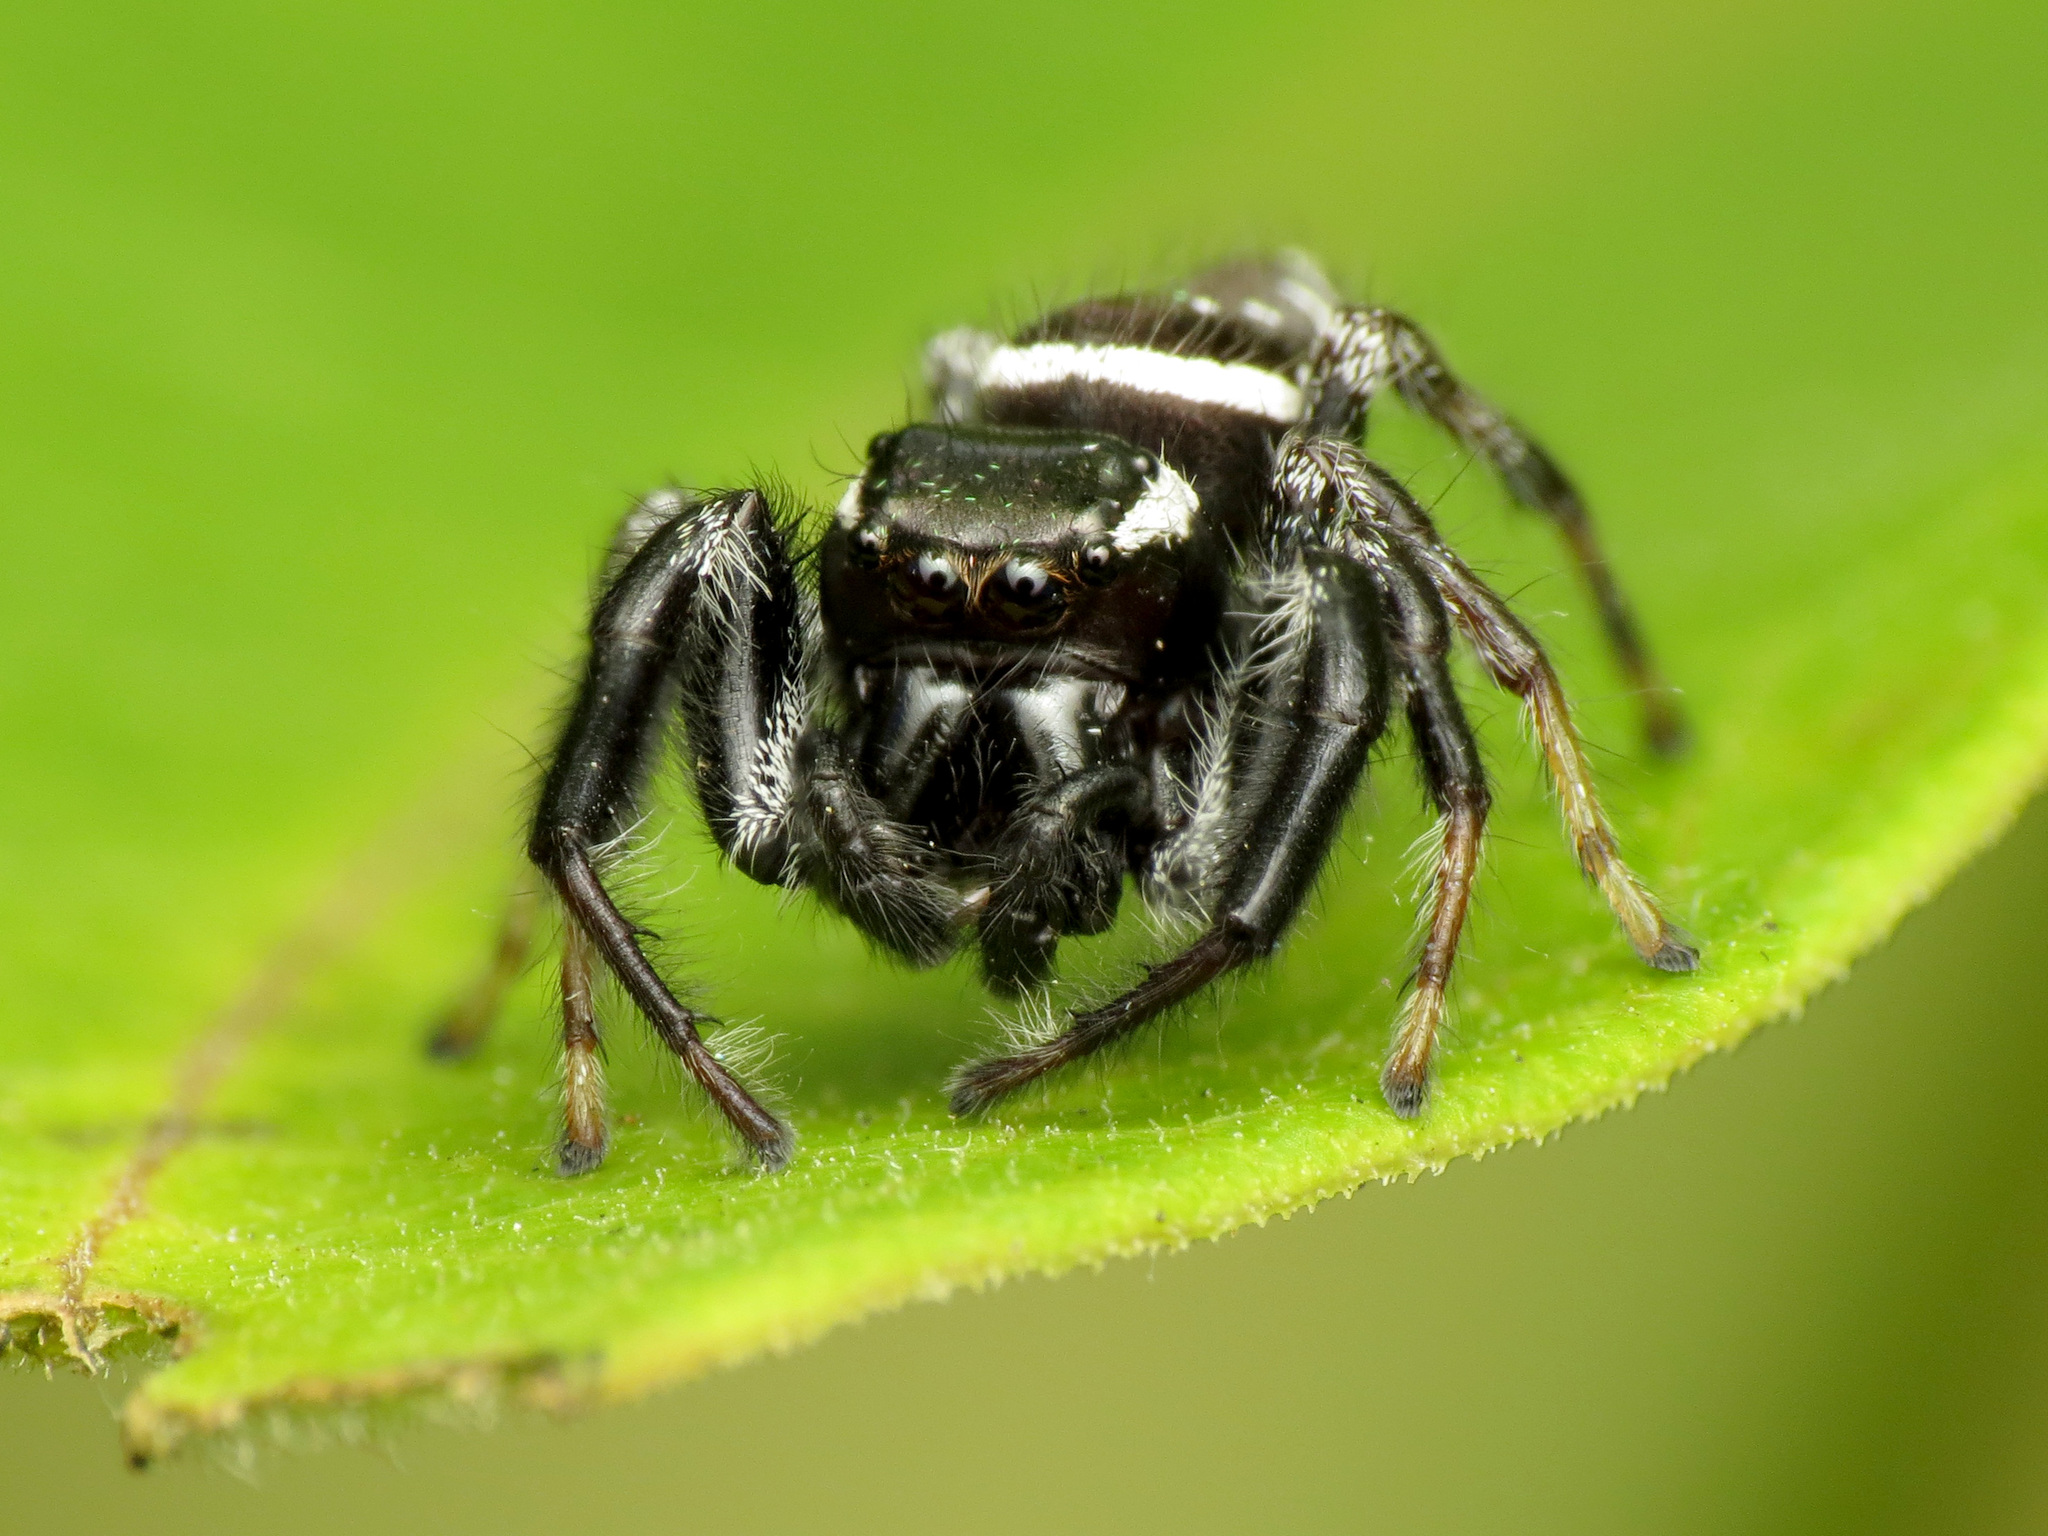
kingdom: Animalia
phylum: Arthropoda
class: Arachnida
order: Araneae
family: Salticidae
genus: Paraphidippus
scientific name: Paraphidippus aurantius
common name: Jumping spiders
